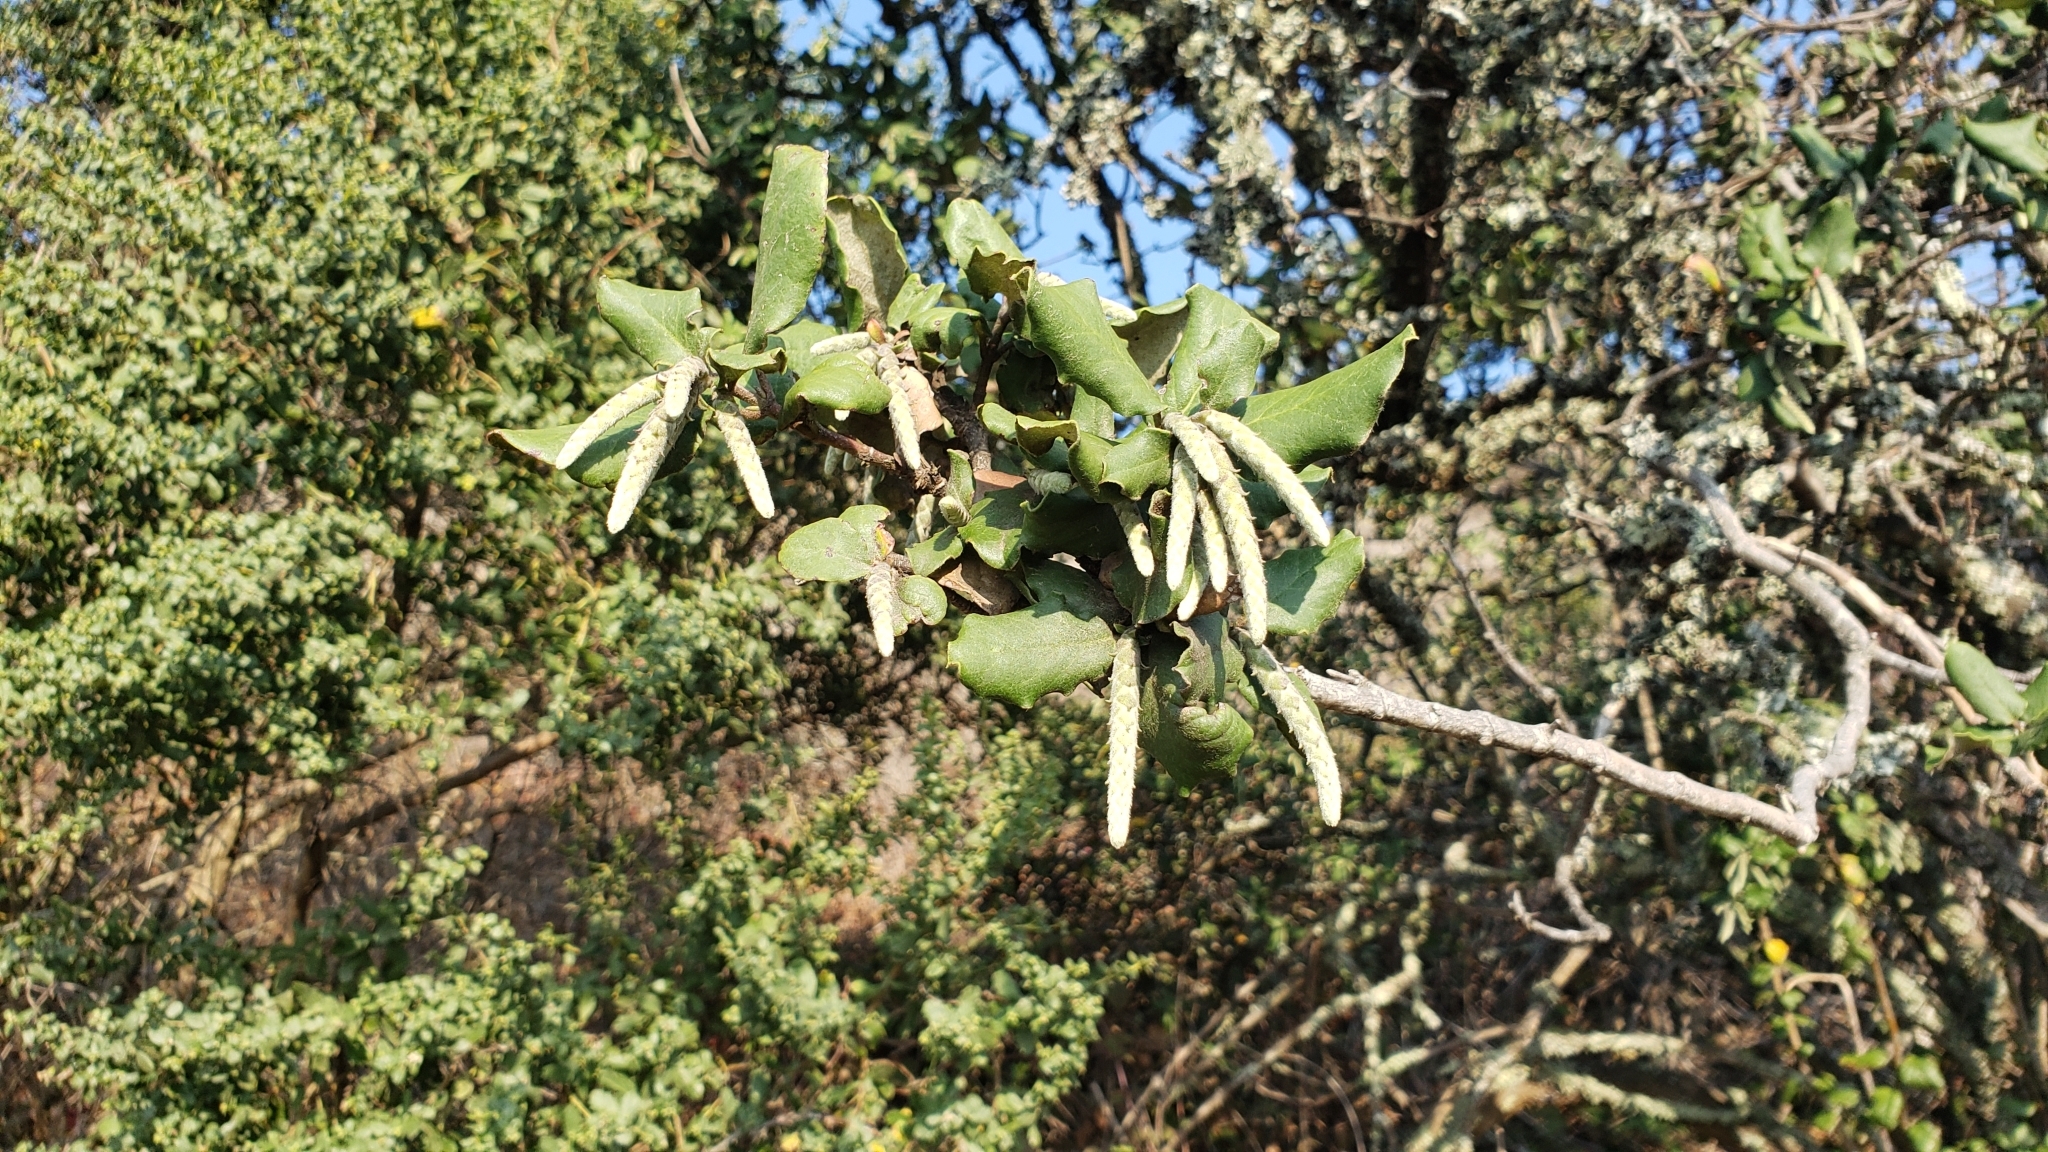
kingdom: Plantae
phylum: Tracheophyta
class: Magnoliopsida
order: Garryales
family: Garryaceae
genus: Garrya
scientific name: Garrya elliptica
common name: Silk-tassel
